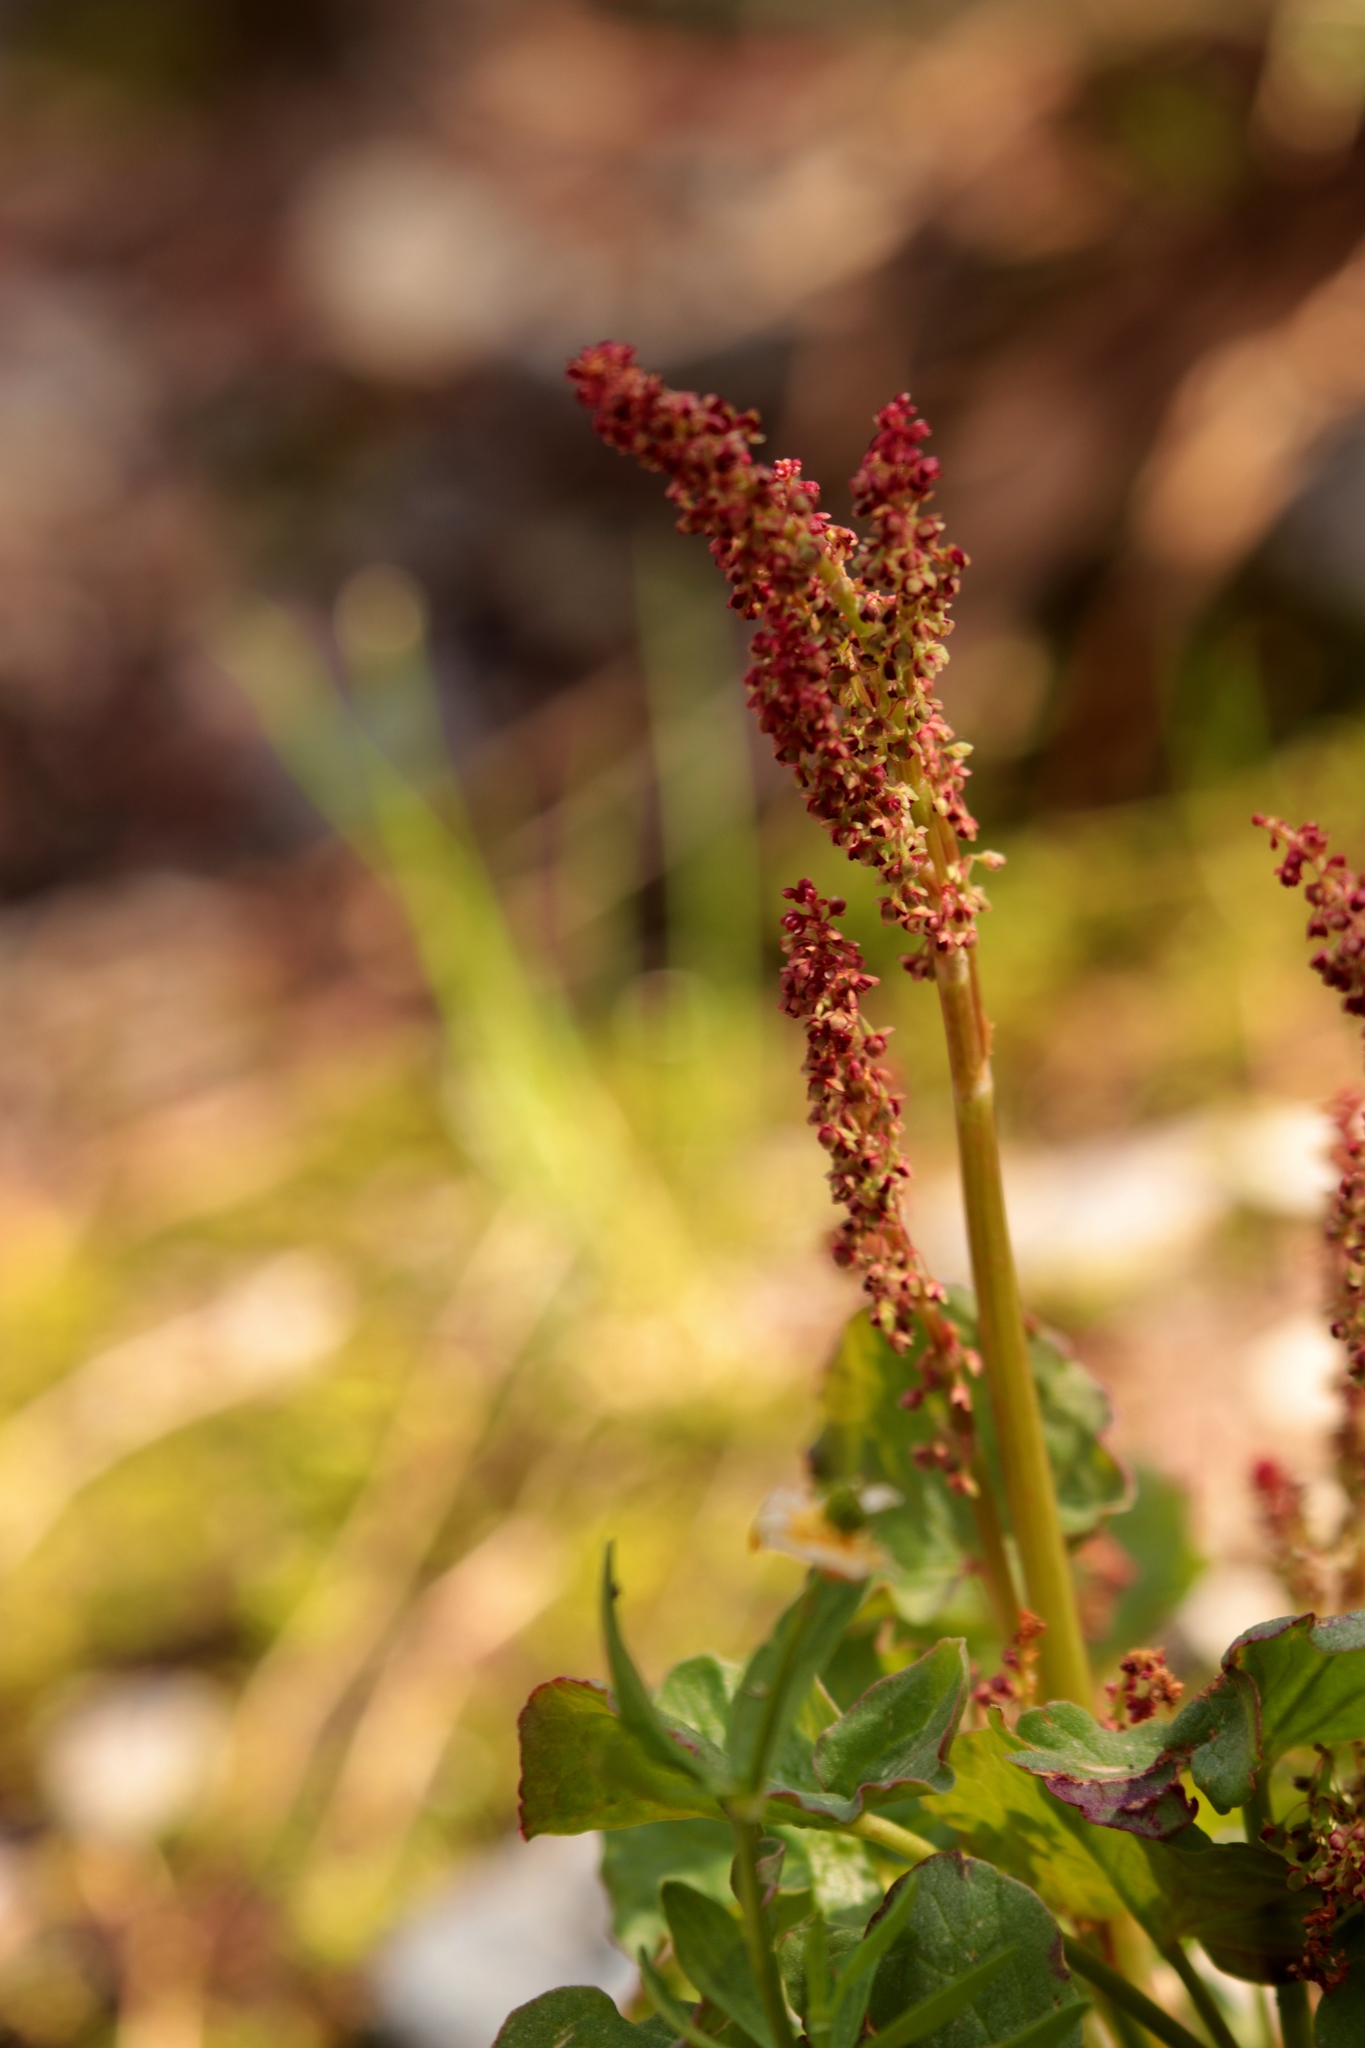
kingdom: Plantae
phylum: Tracheophyta
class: Magnoliopsida
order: Caryophyllales
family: Polygonaceae
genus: Oxyria
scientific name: Oxyria digyna
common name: Alpine mountain-sorrel
